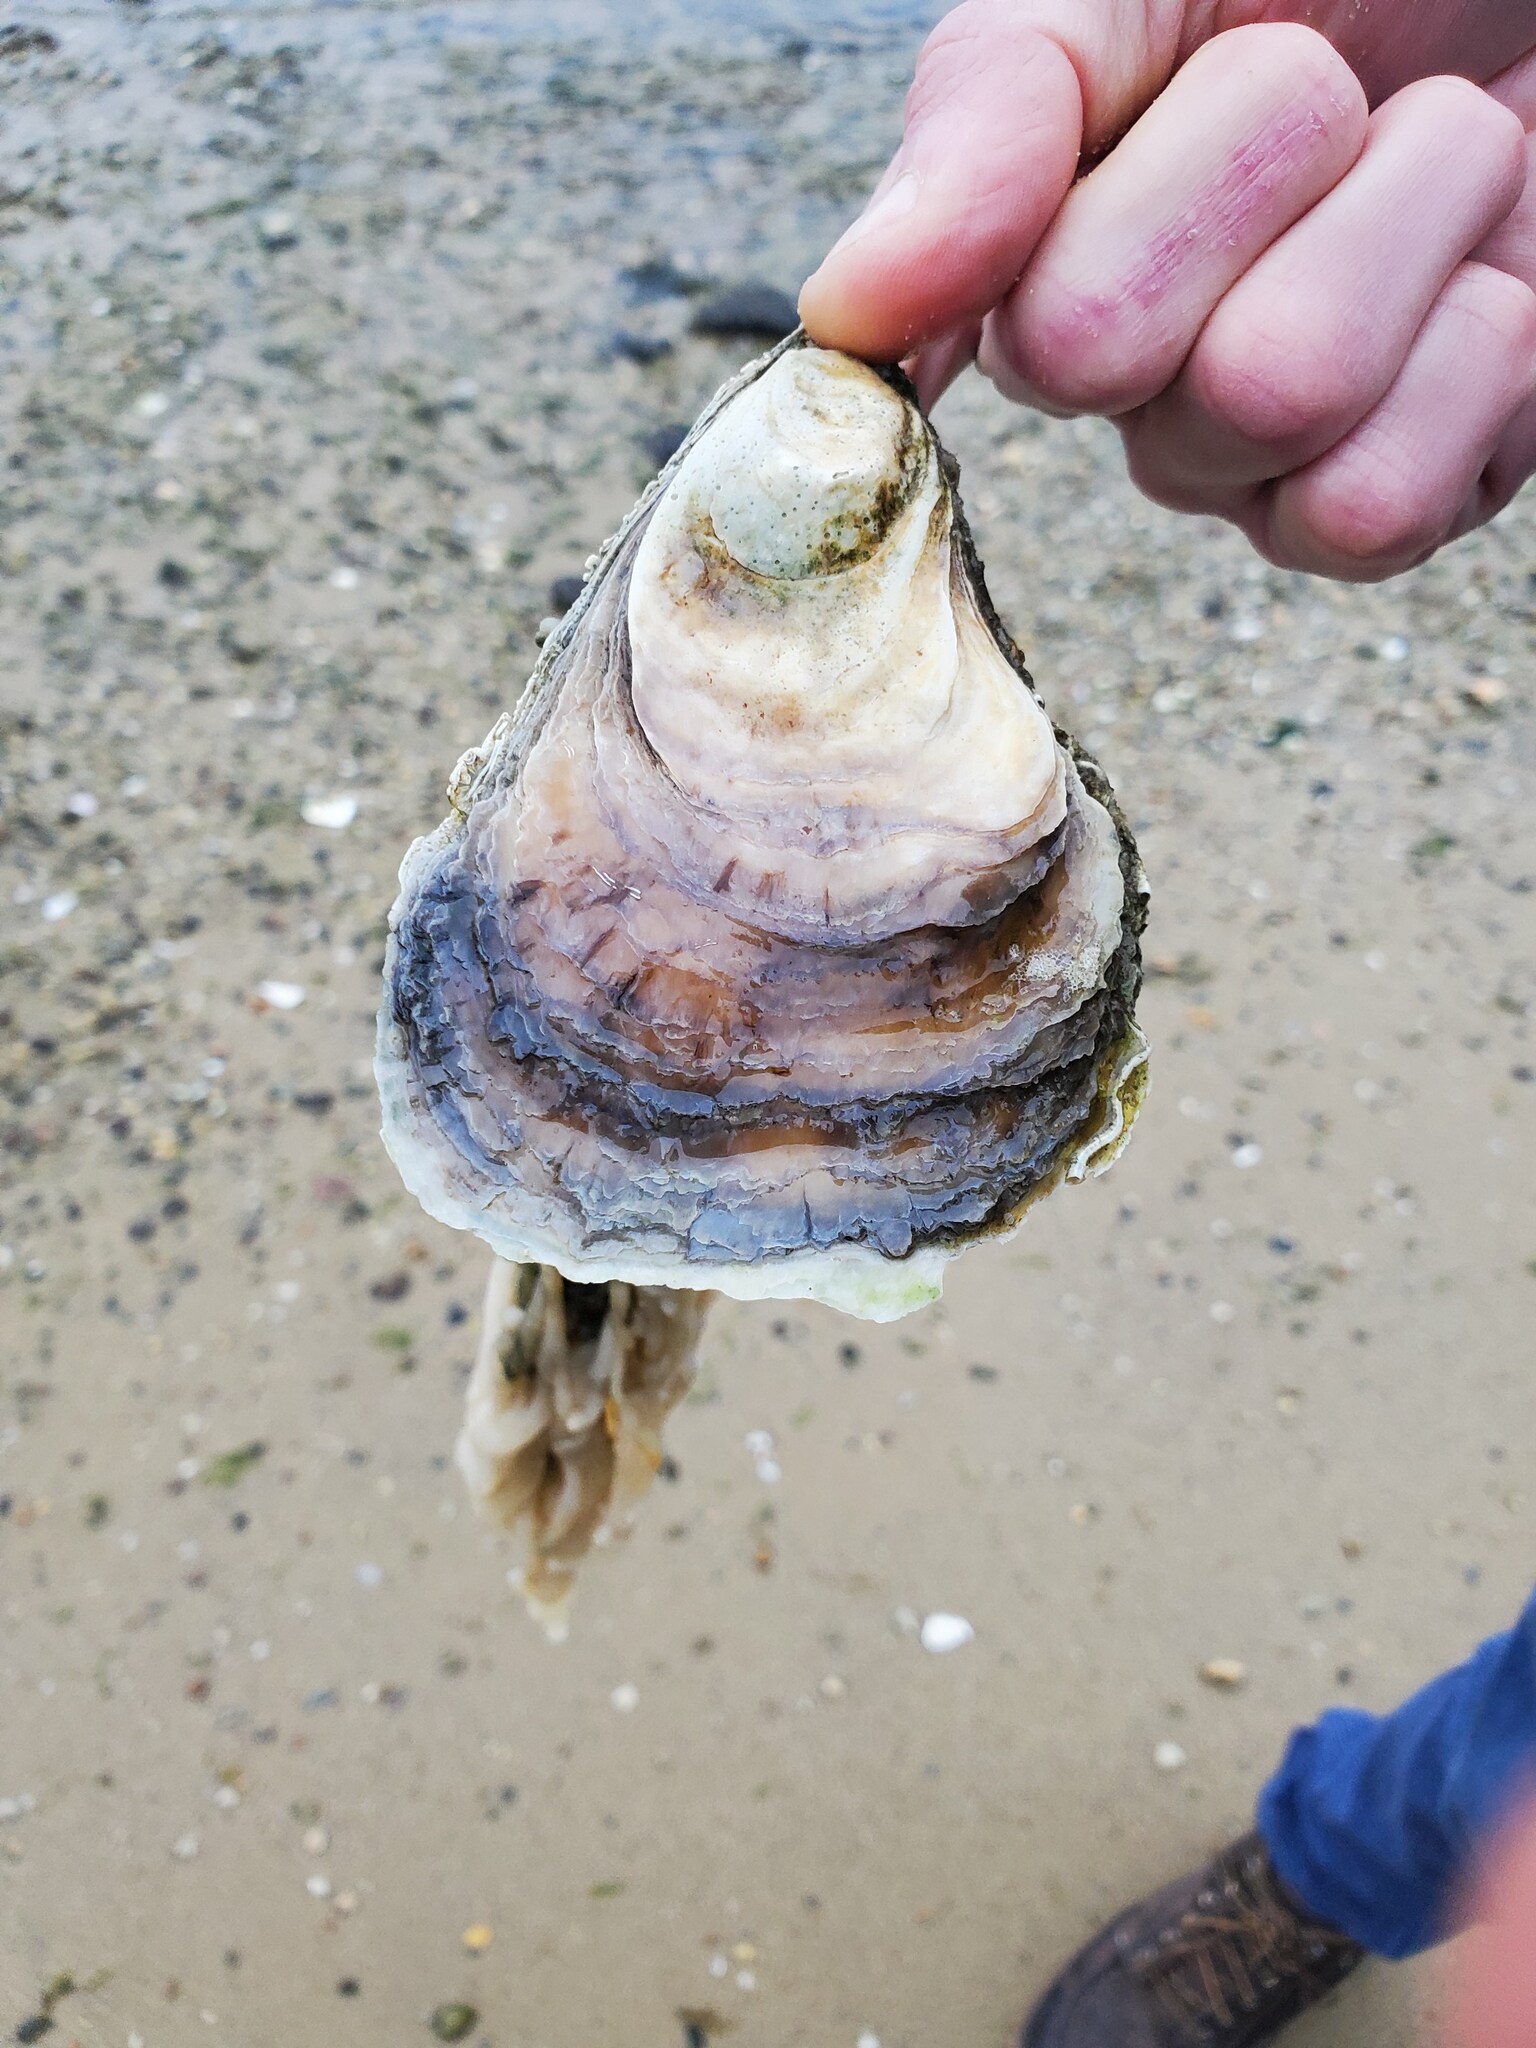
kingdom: Animalia
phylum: Mollusca
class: Bivalvia
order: Ostreida
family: Ostreidae
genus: Crassostrea
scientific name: Crassostrea virginica
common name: American oyster
